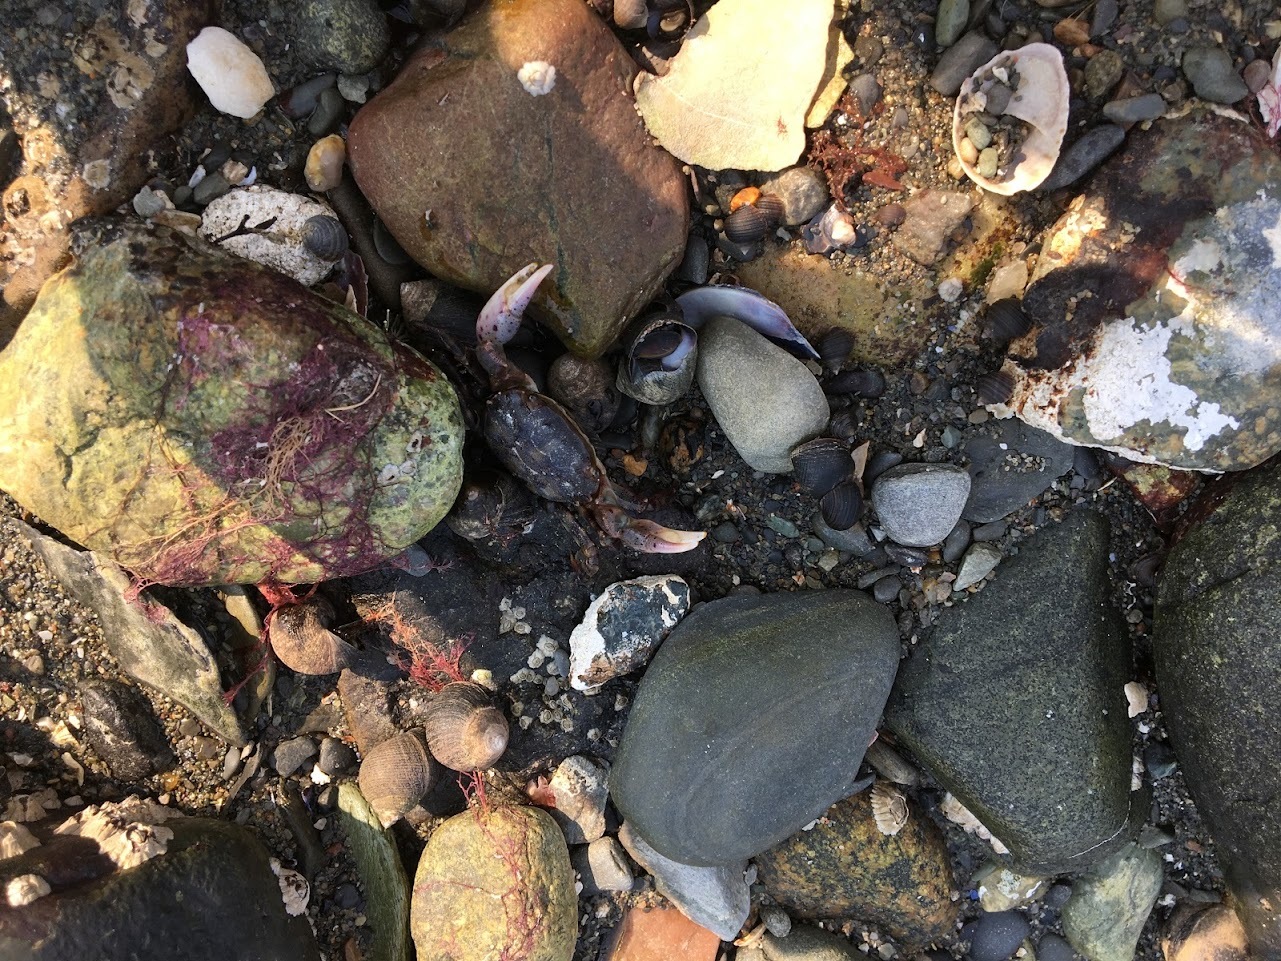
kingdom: Animalia
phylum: Arthropoda
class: Malacostraca
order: Decapoda
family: Varunidae
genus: Hemigrapsus
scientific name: Hemigrapsus sanguineus
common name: Asian shore crab
